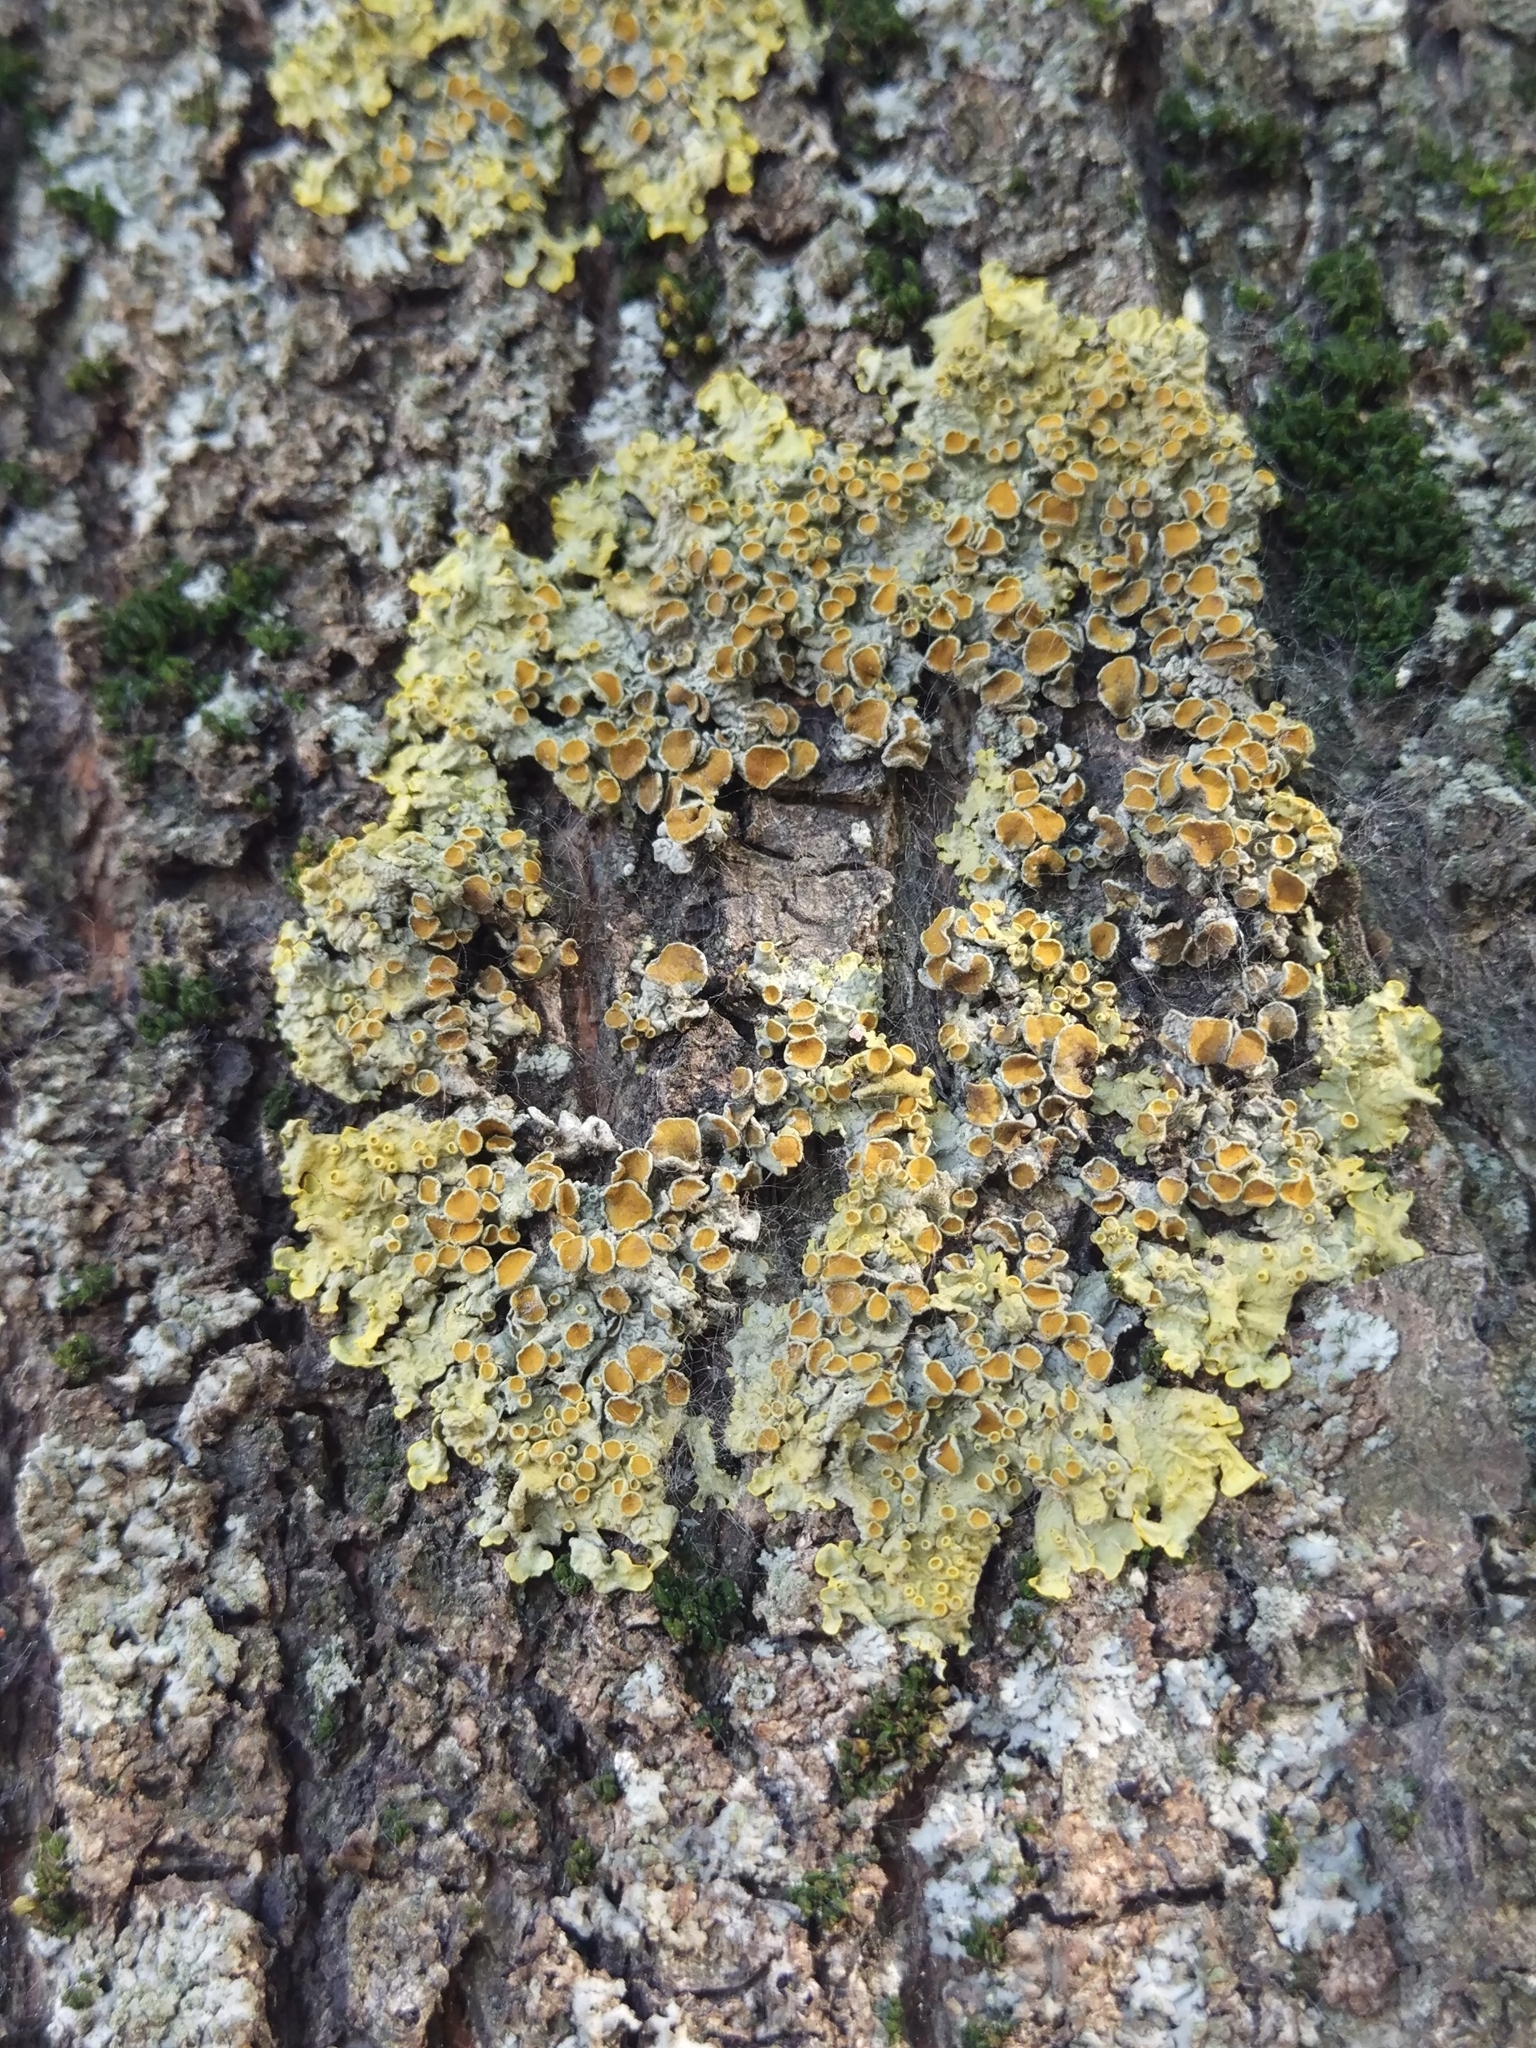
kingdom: Fungi
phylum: Ascomycota
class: Lecanoromycetes
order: Teloschistales
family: Teloschistaceae
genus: Xanthoria
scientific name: Xanthoria parietina
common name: Common orange lichen
